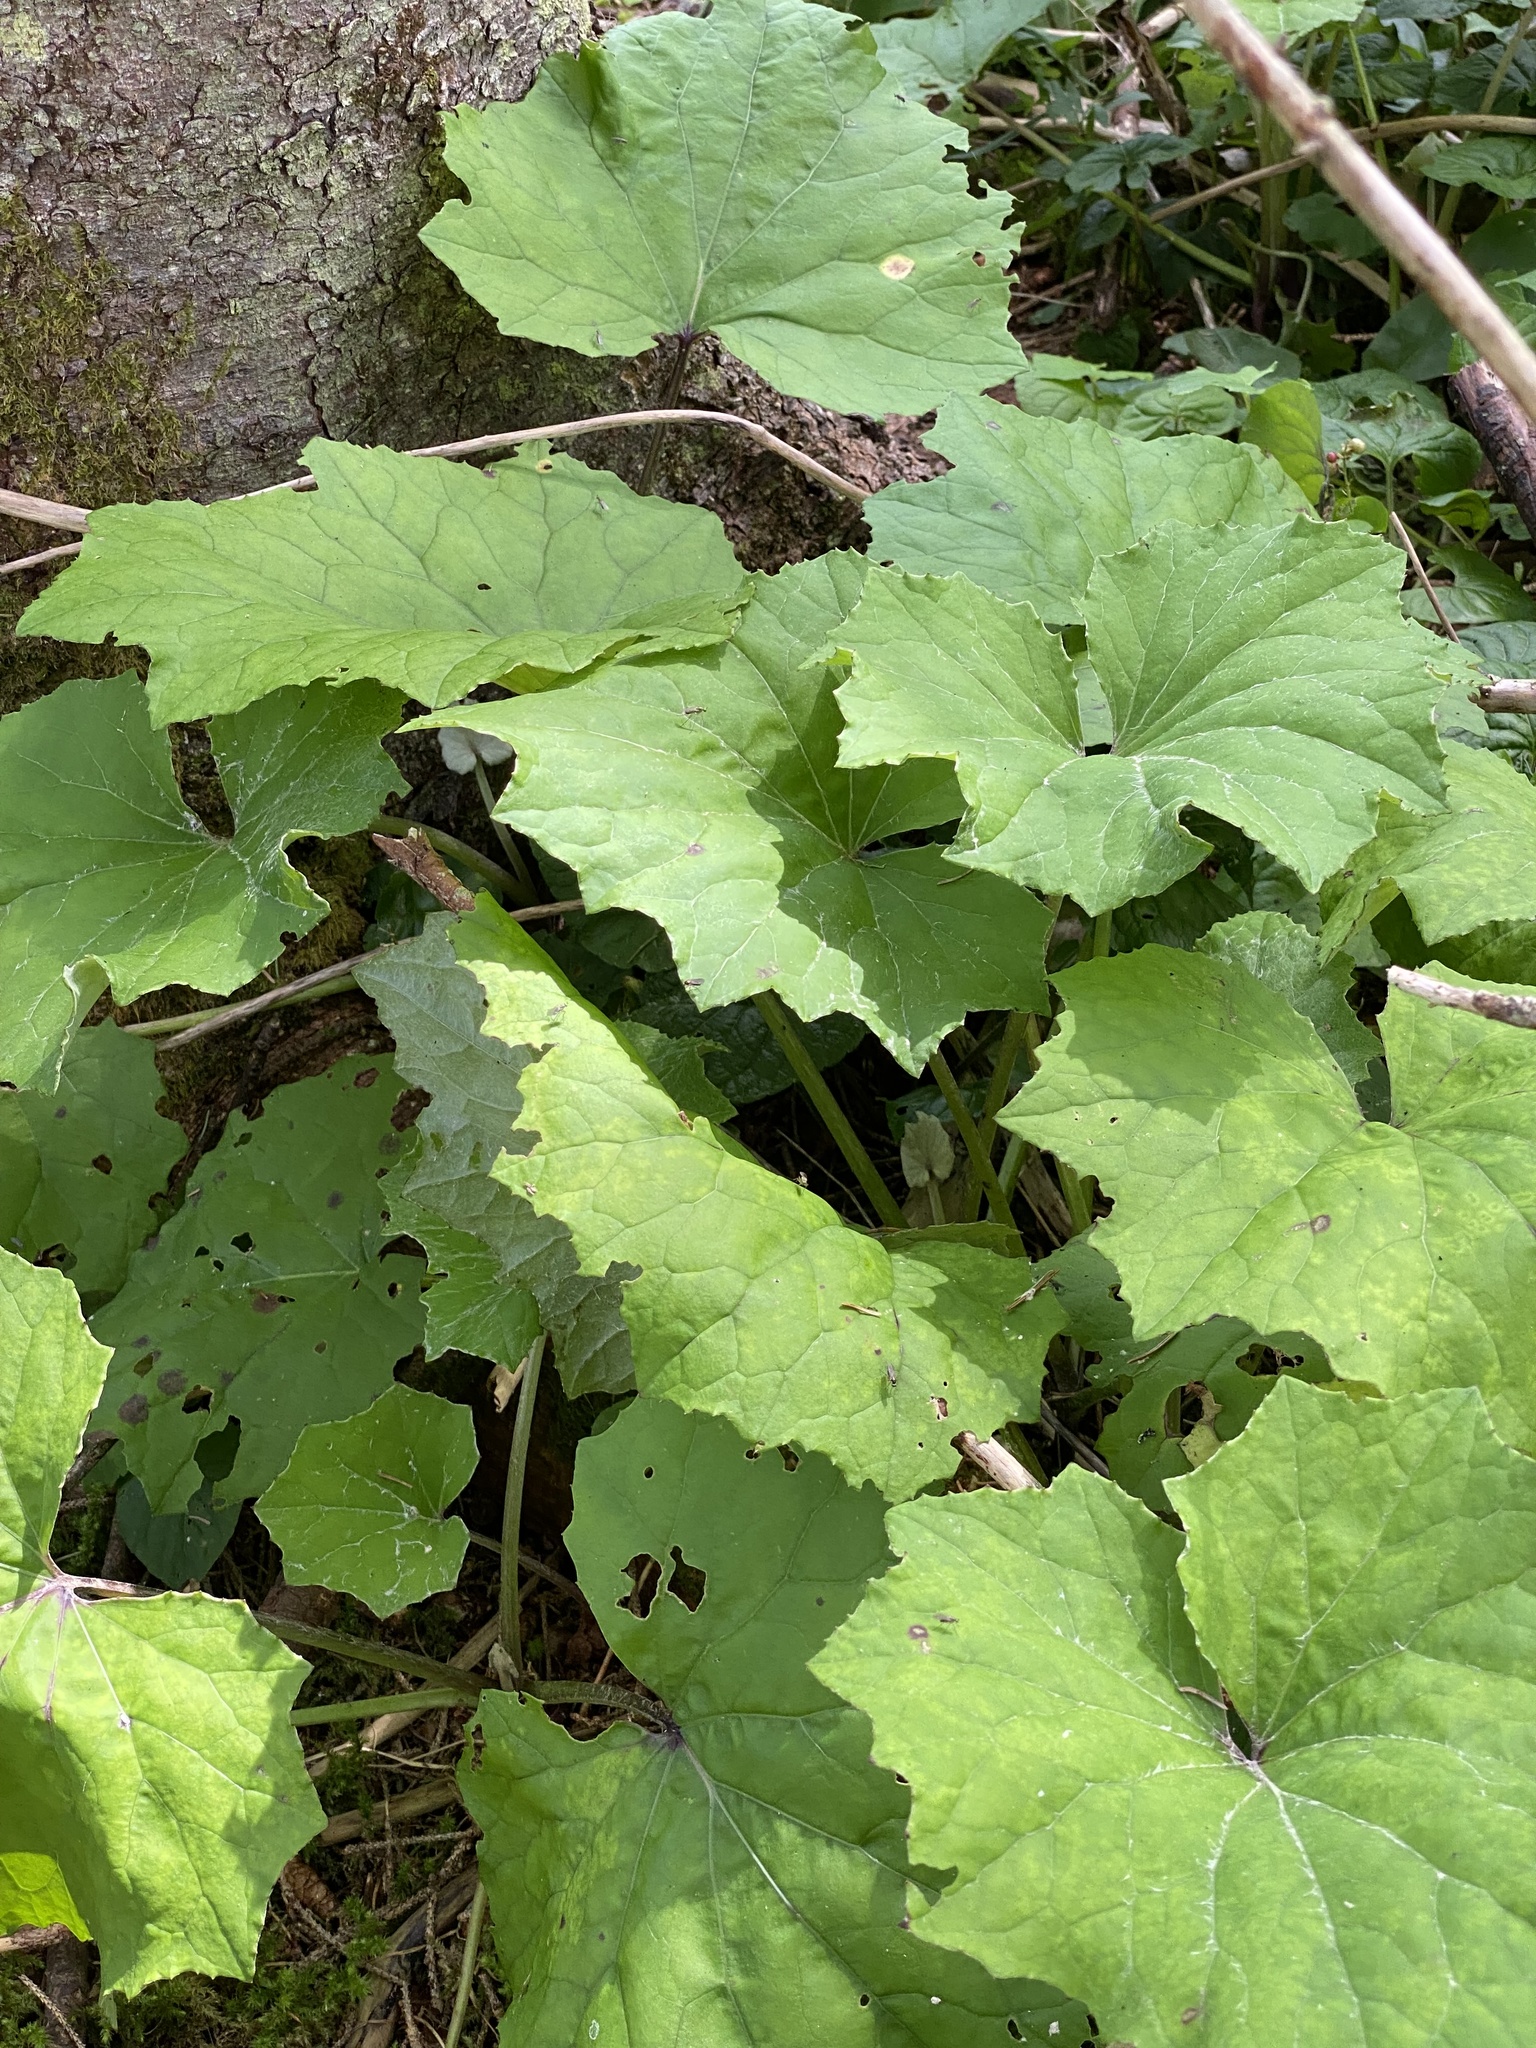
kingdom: Plantae
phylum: Tracheophyta
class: Magnoliopsida
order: Asterales
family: Asteraceae
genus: Tussilago
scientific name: Tussilago farfara
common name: Coltsfoot
